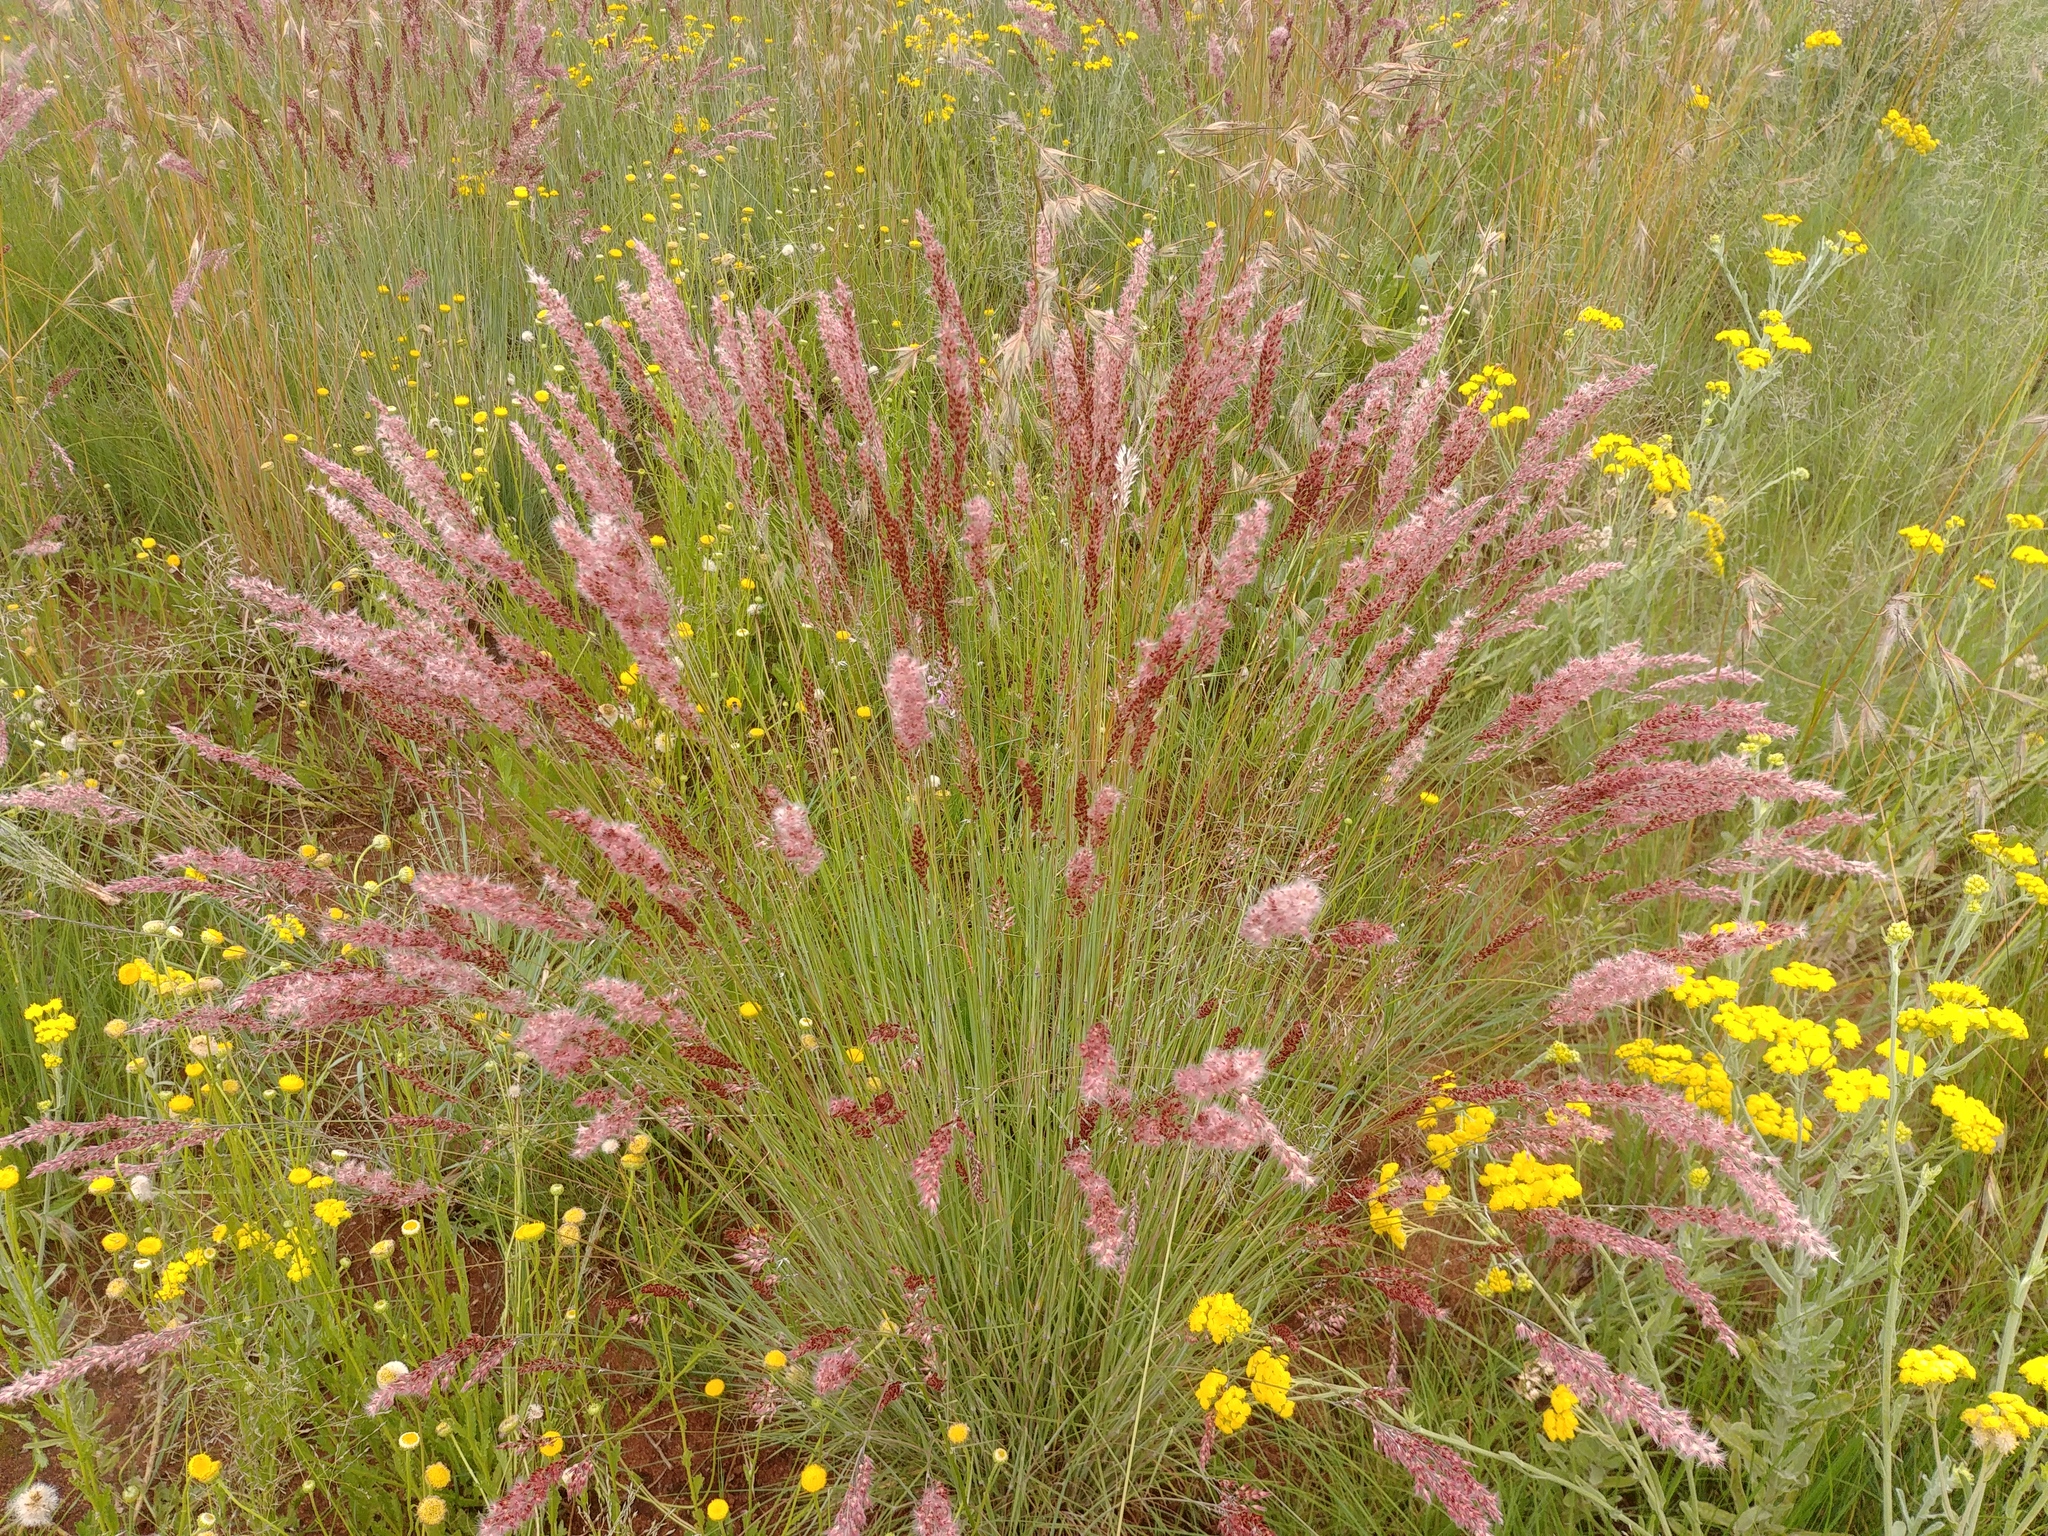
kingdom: Plantae
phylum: Tracheophyta
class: Liliopsida
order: Poales
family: Poaceae
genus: Melinis
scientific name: Melinis nerviglumis
